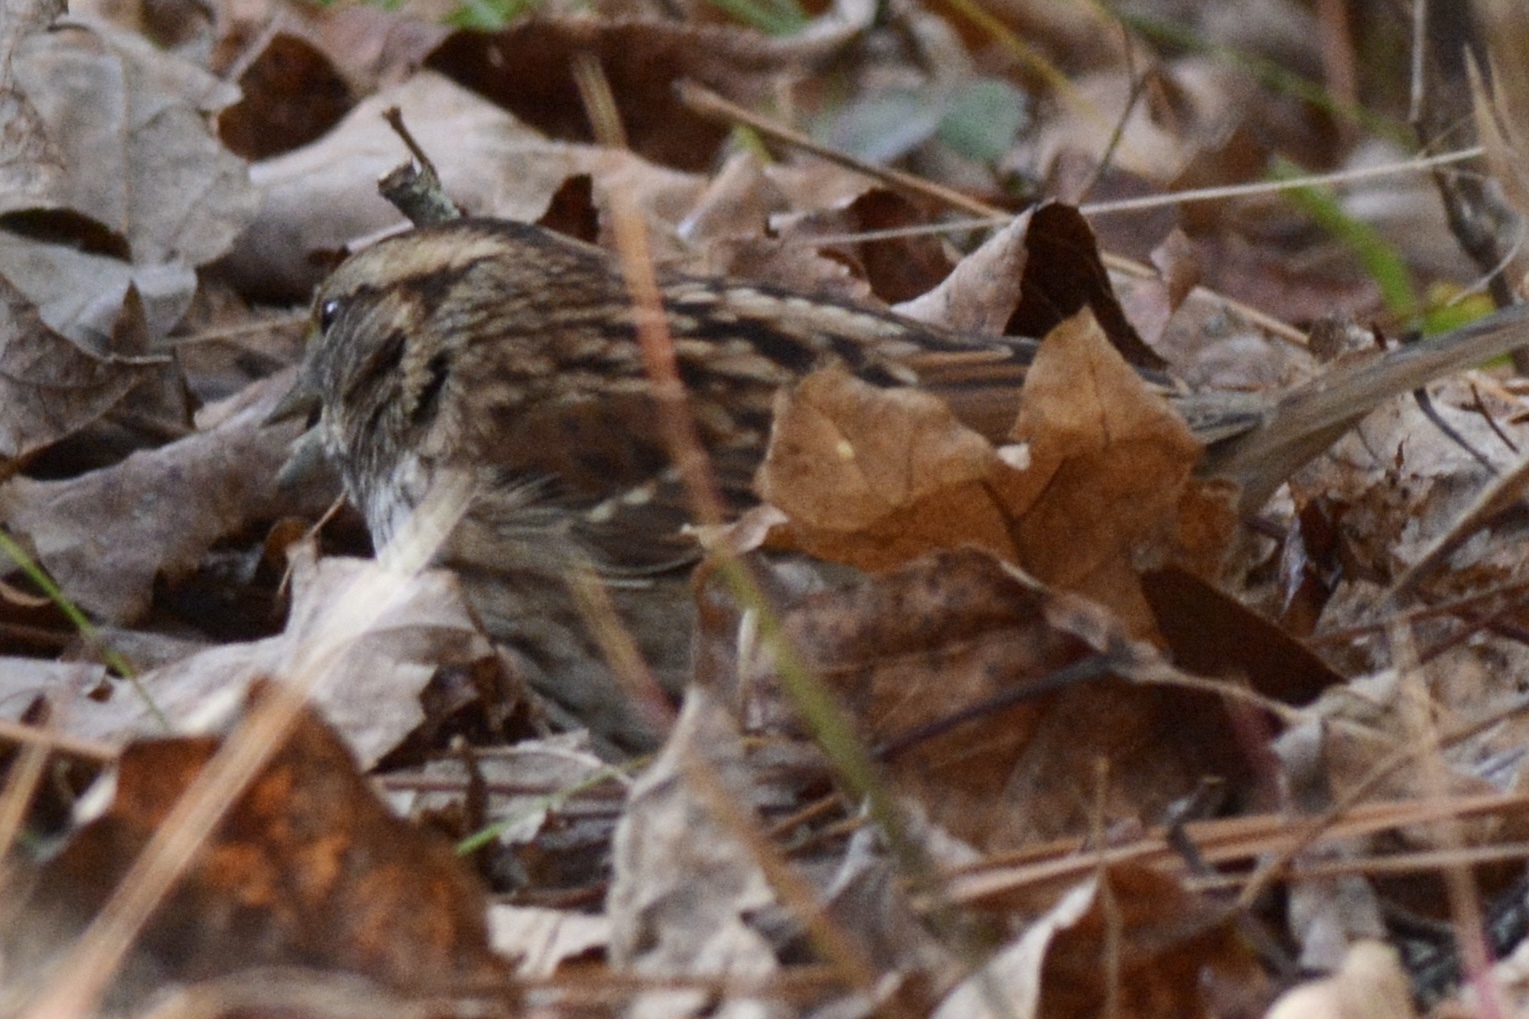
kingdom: Animalia
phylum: Chordata
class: Aves
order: Passeriformes
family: Passerellidae
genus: Zonotrichia
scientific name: Zonotrichia albicollis
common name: White-throated sparrow
